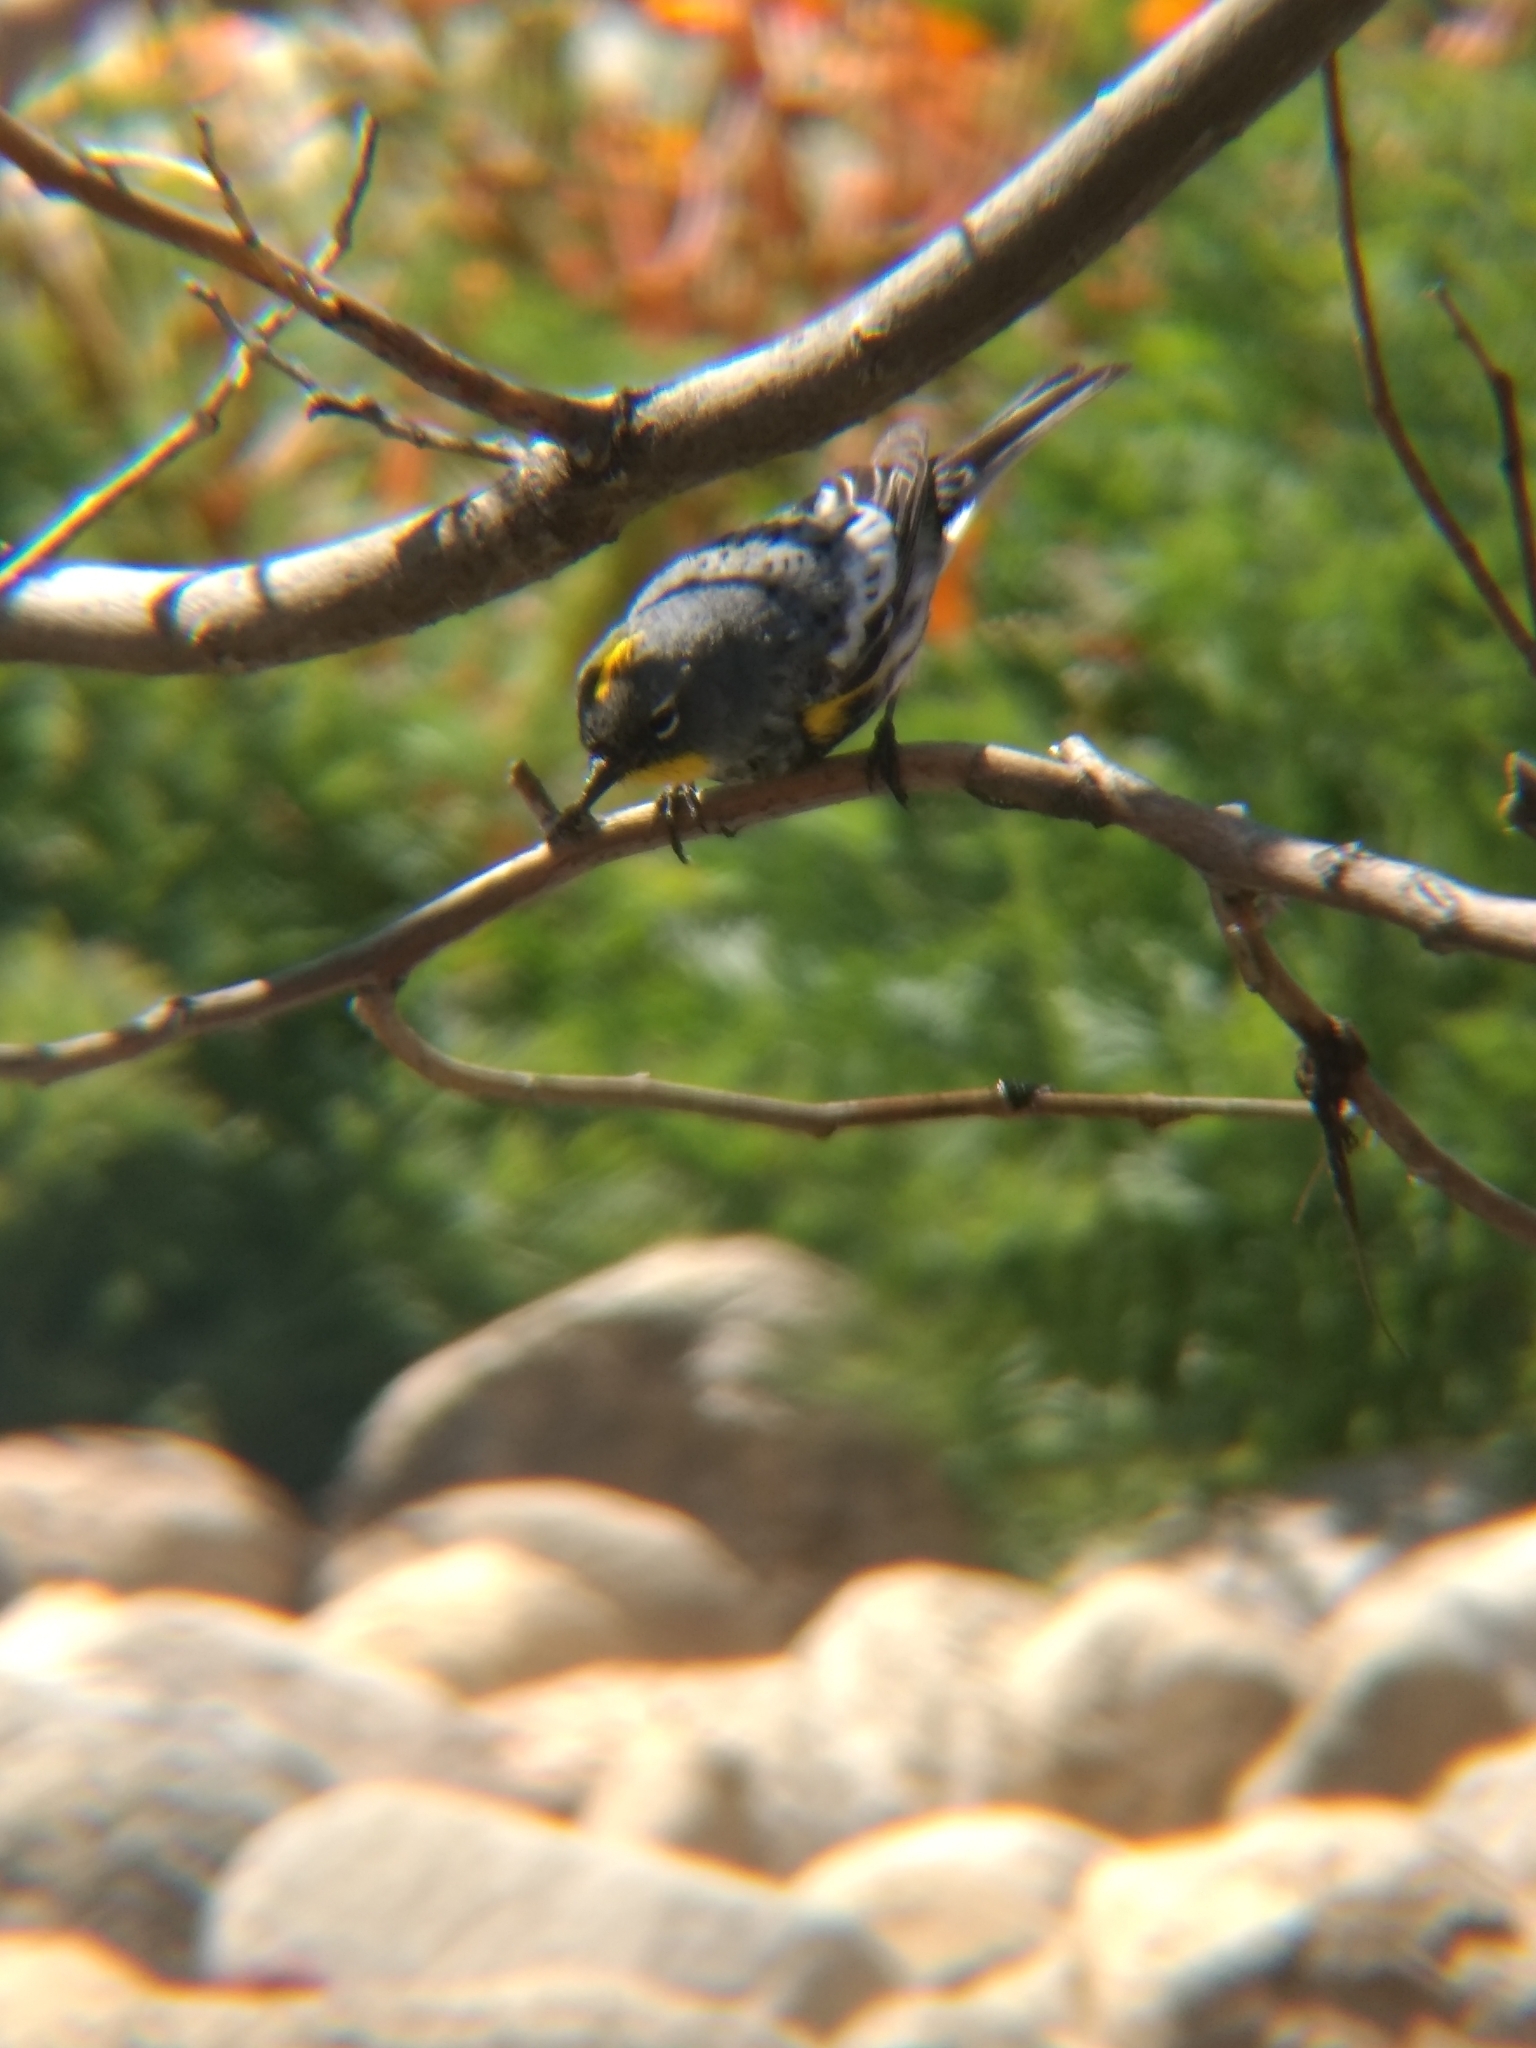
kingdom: Animalia
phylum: Chordata
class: Aves
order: Passeriformes
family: Parulidae
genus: Setophaga
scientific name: Setophaga coronata
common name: Myrtle warbler
